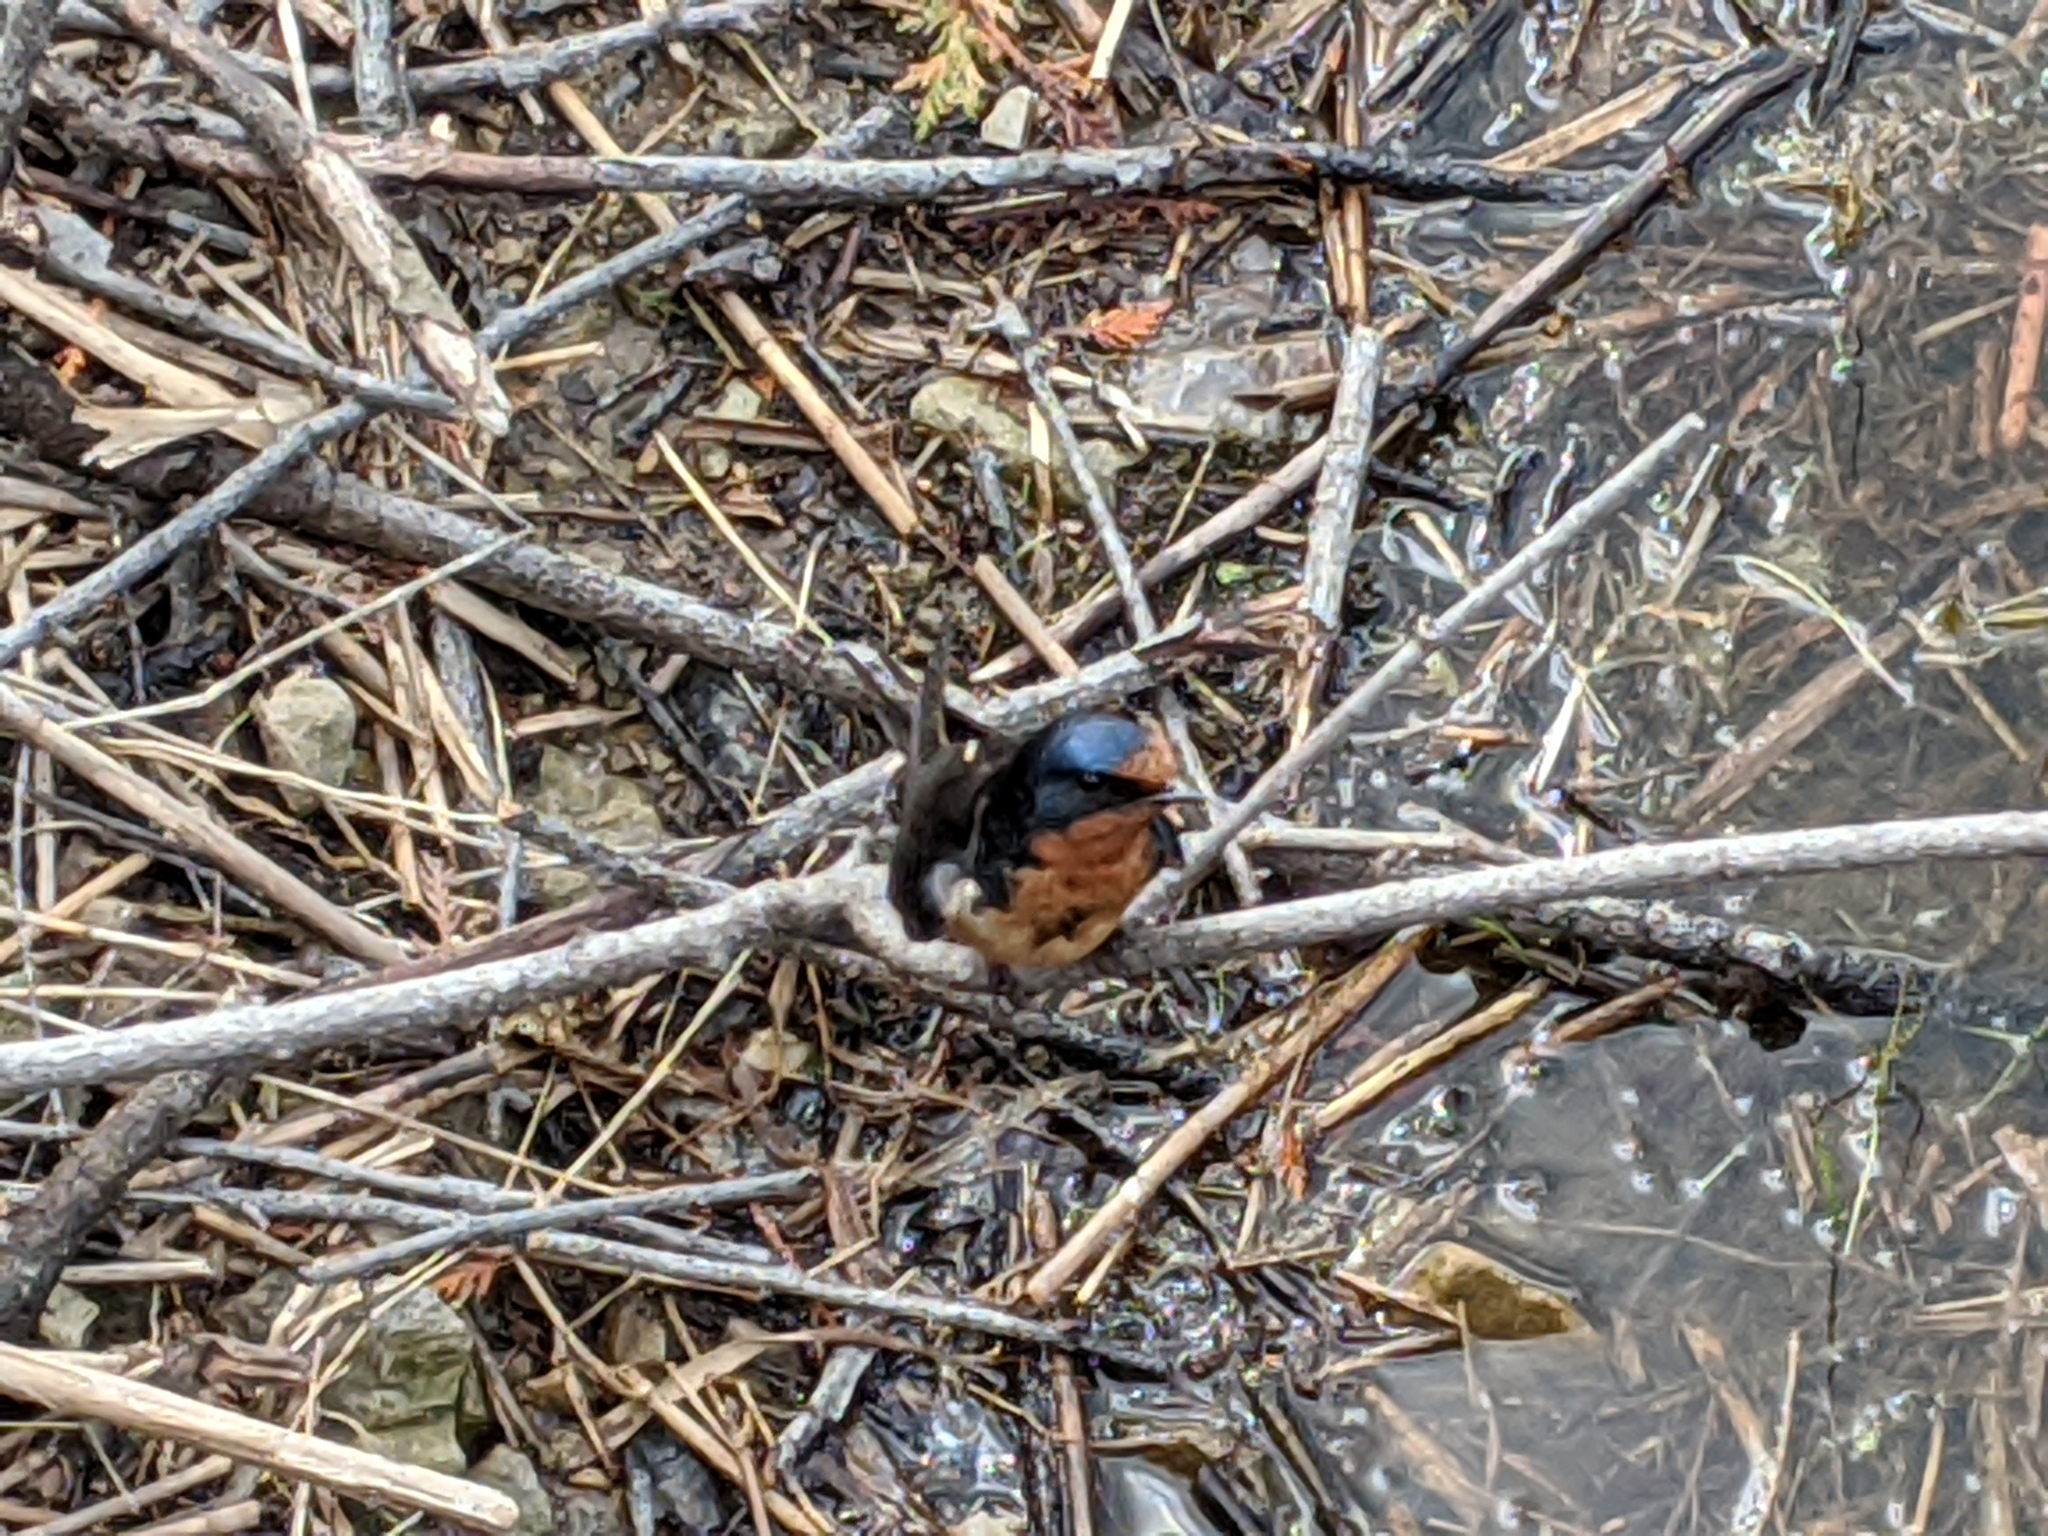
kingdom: Animalia
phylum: Chordata
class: Aves
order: Passeriformes
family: Hirundinidae
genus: Hirundo
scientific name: Hirundo rustica
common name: Barn swallow
